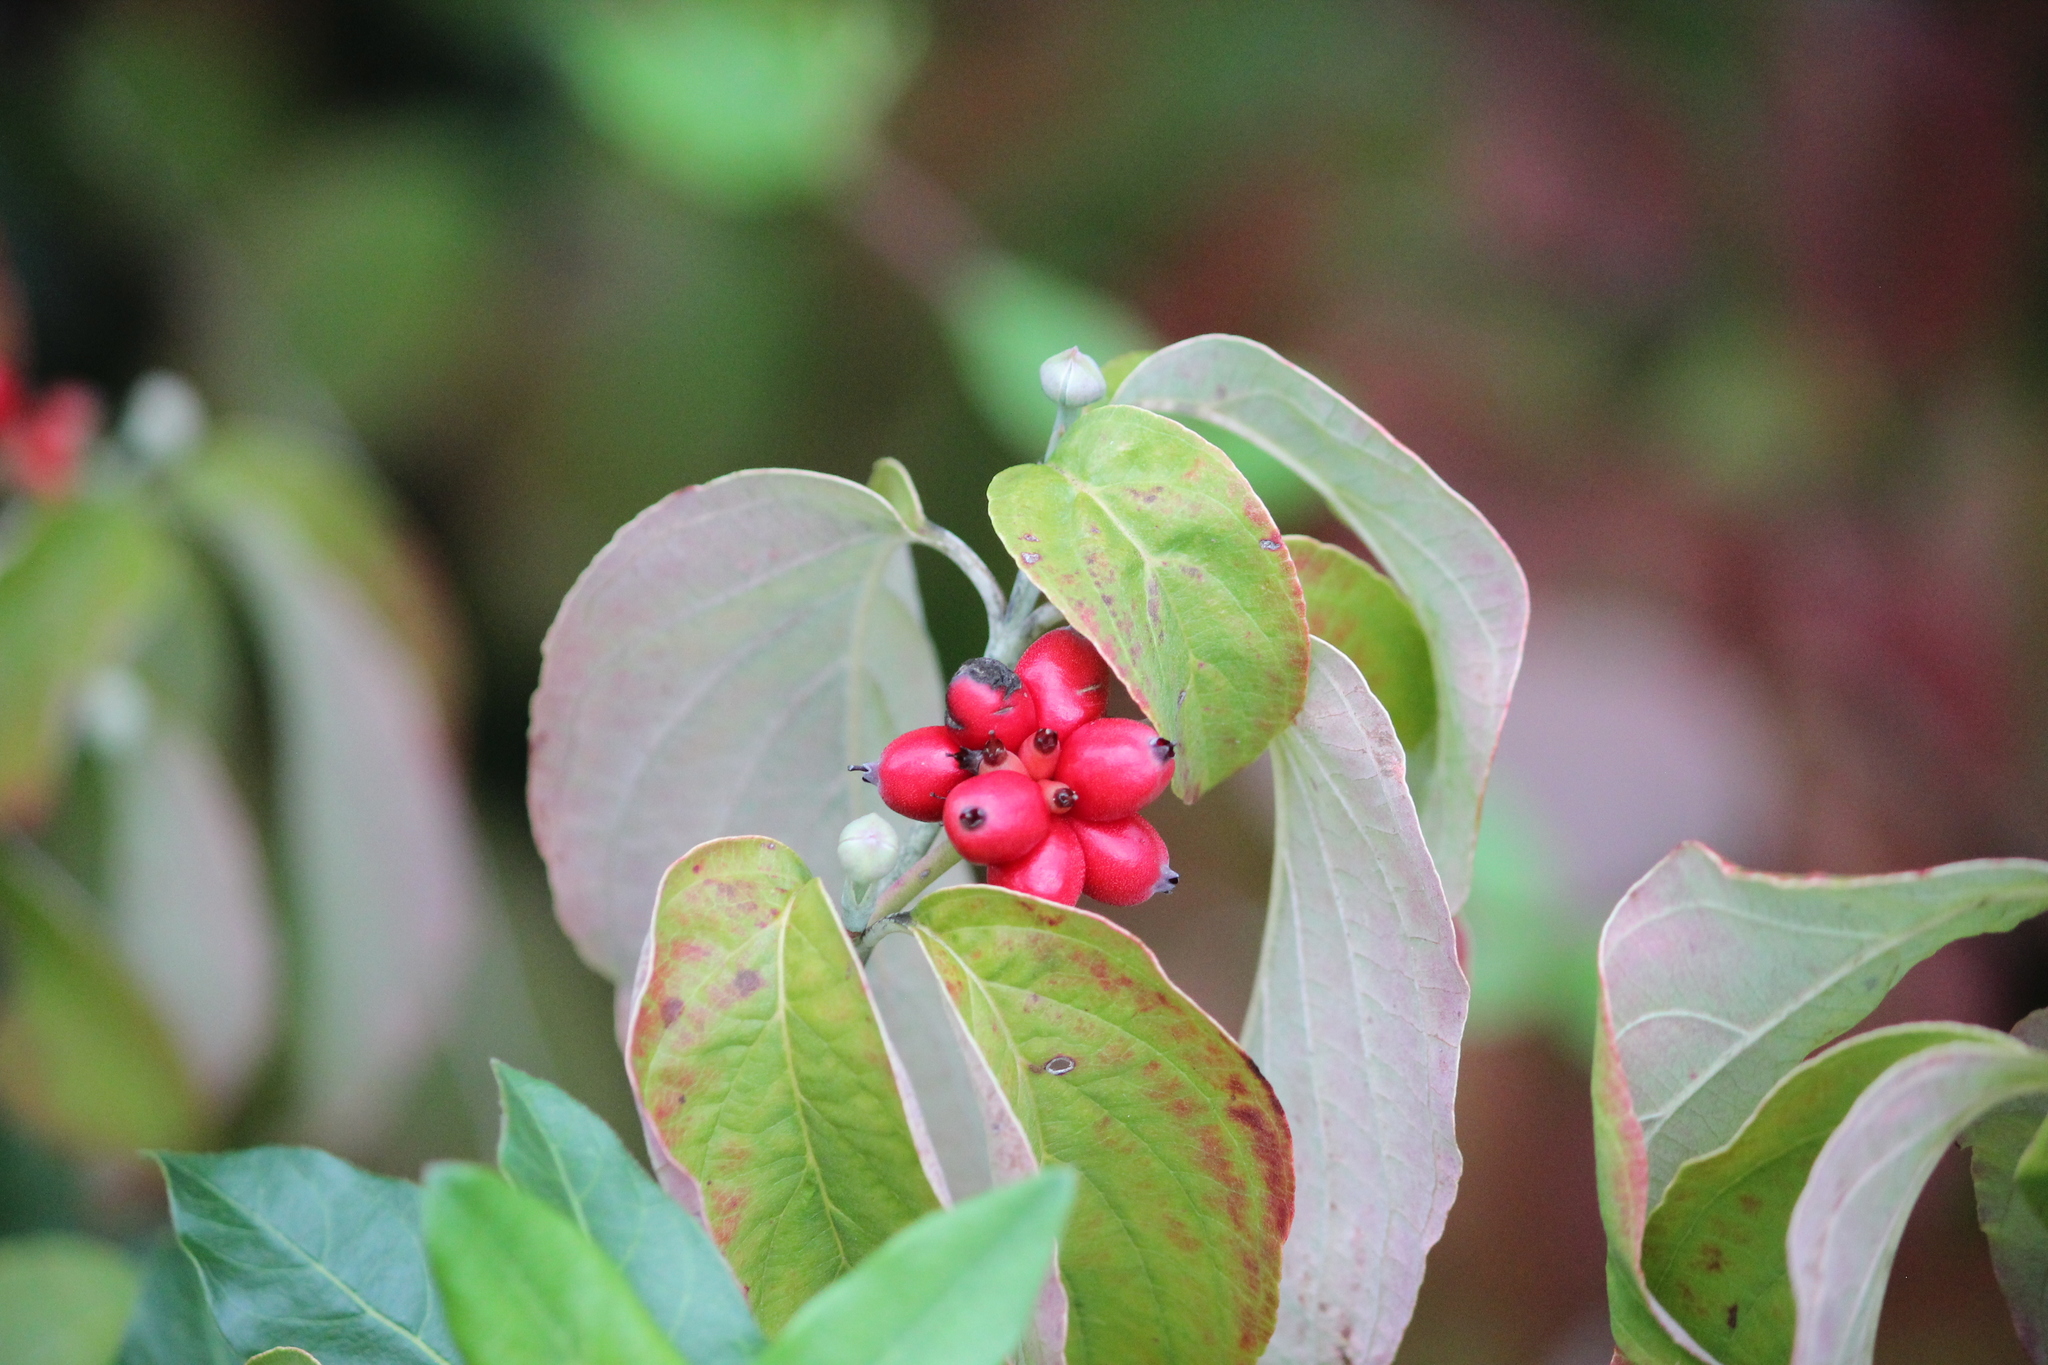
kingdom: Plantae
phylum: Tracheophyta
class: Magnoliopsida
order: Cornales
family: Cornaceae
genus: Cornus
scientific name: Cornus florida
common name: Flowering dogwood
